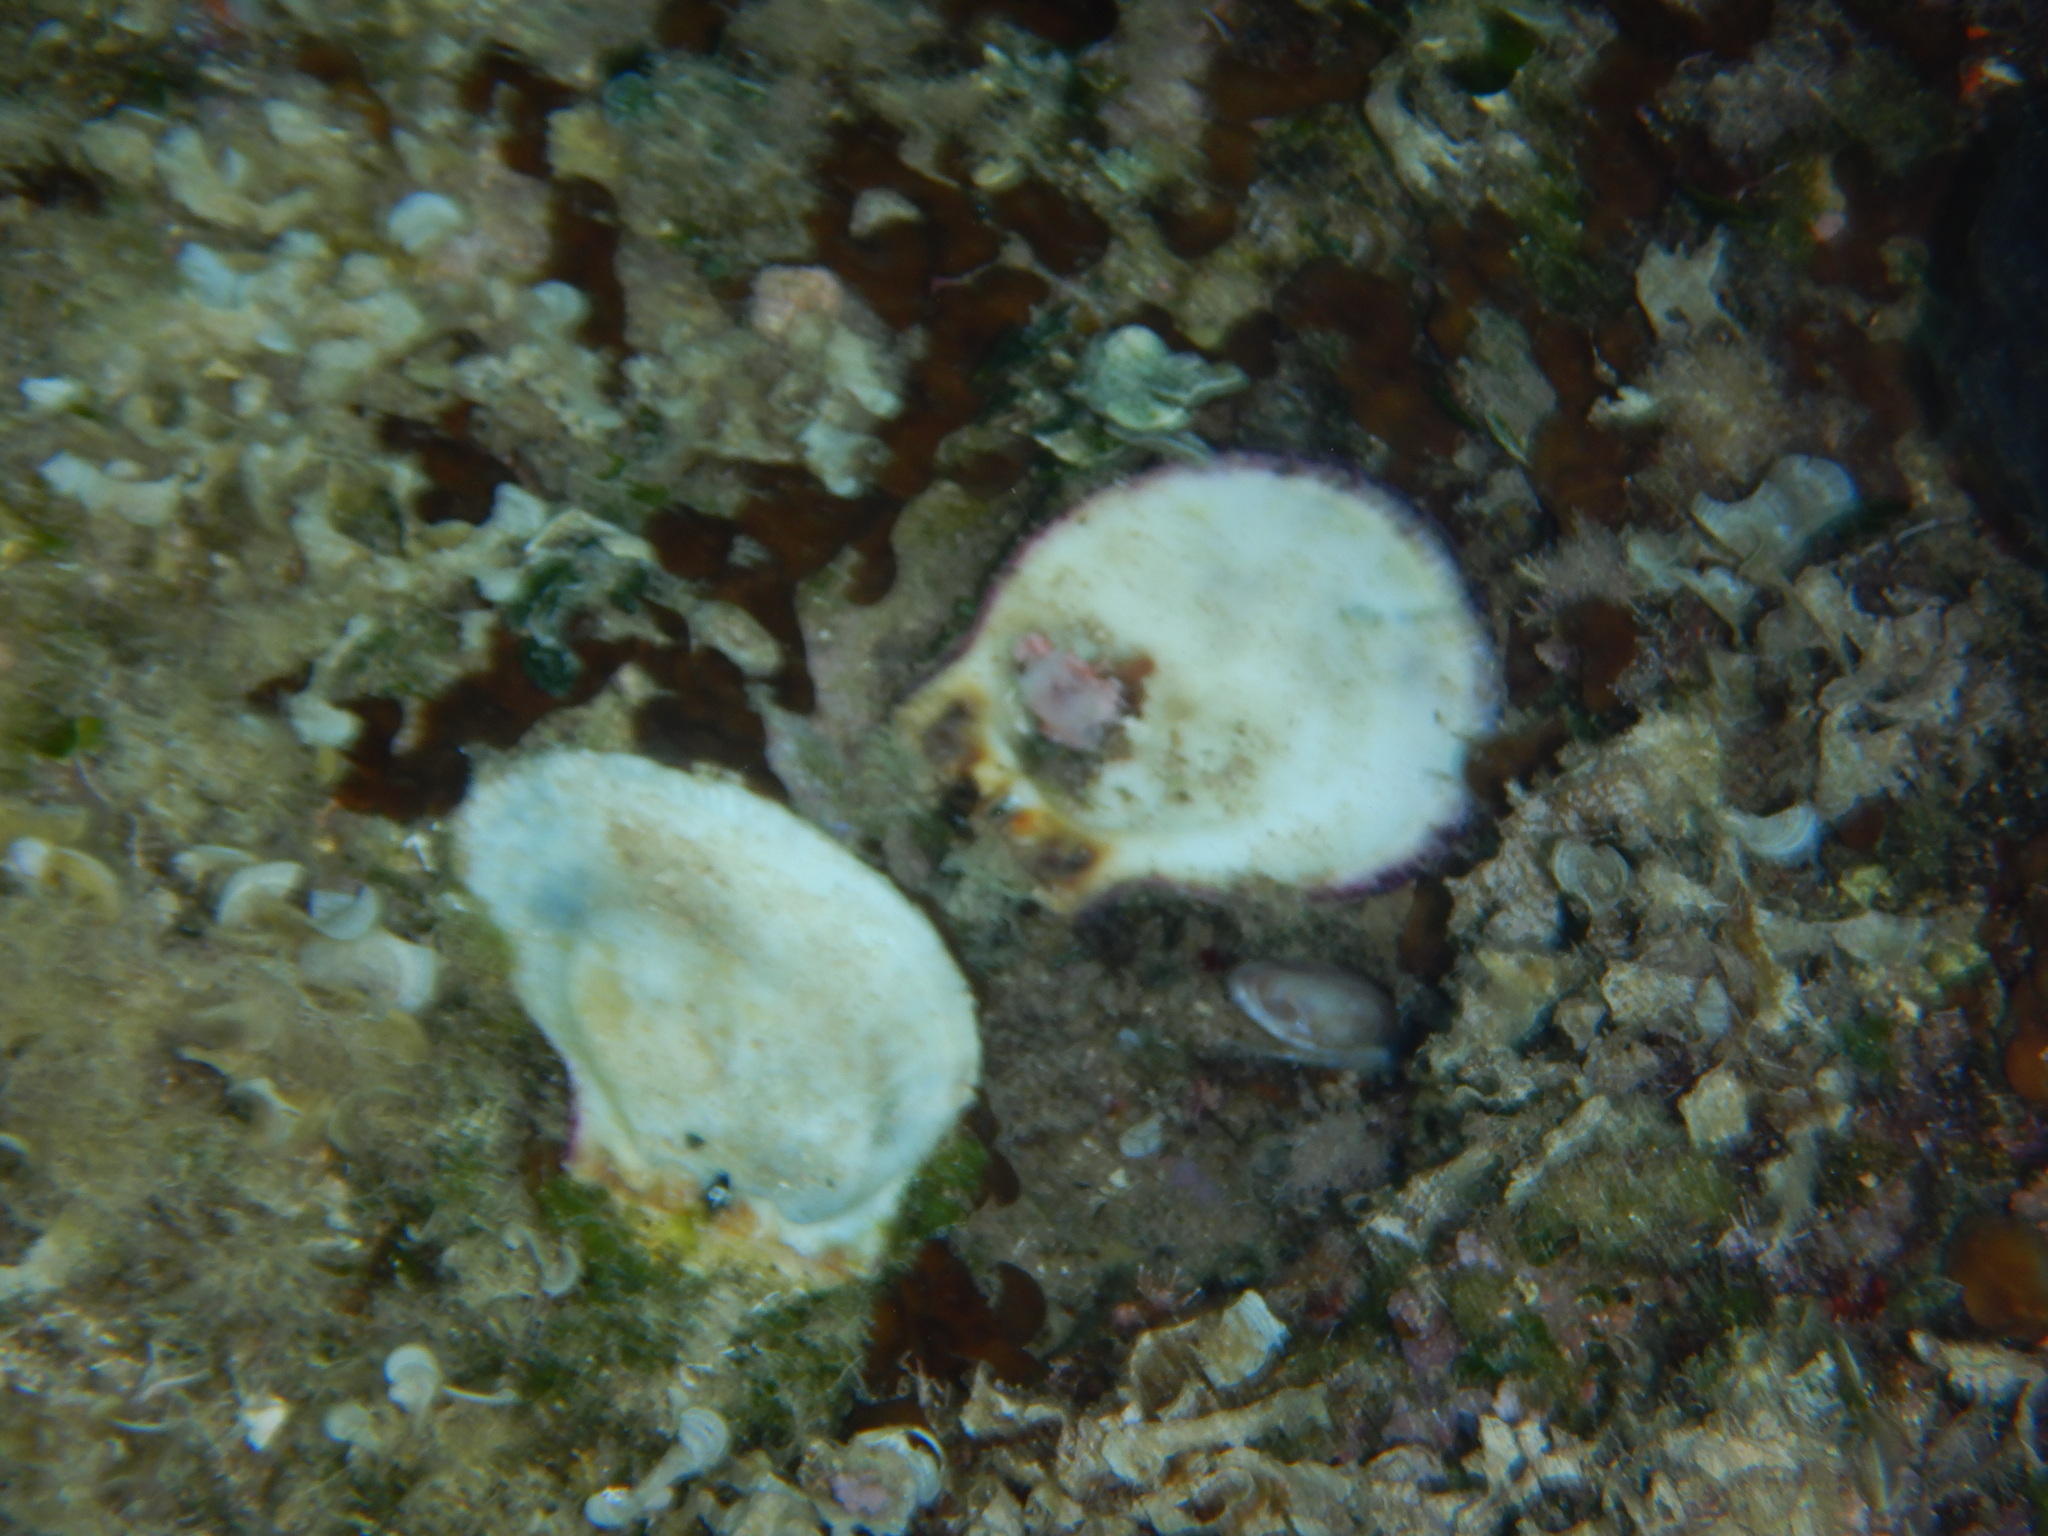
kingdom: Animalia
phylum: Mollusca
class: Bivalvia
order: Pectinida
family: Spondylidae
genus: Spondylus
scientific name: Spondylus gaederopus
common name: European thorny oyster
